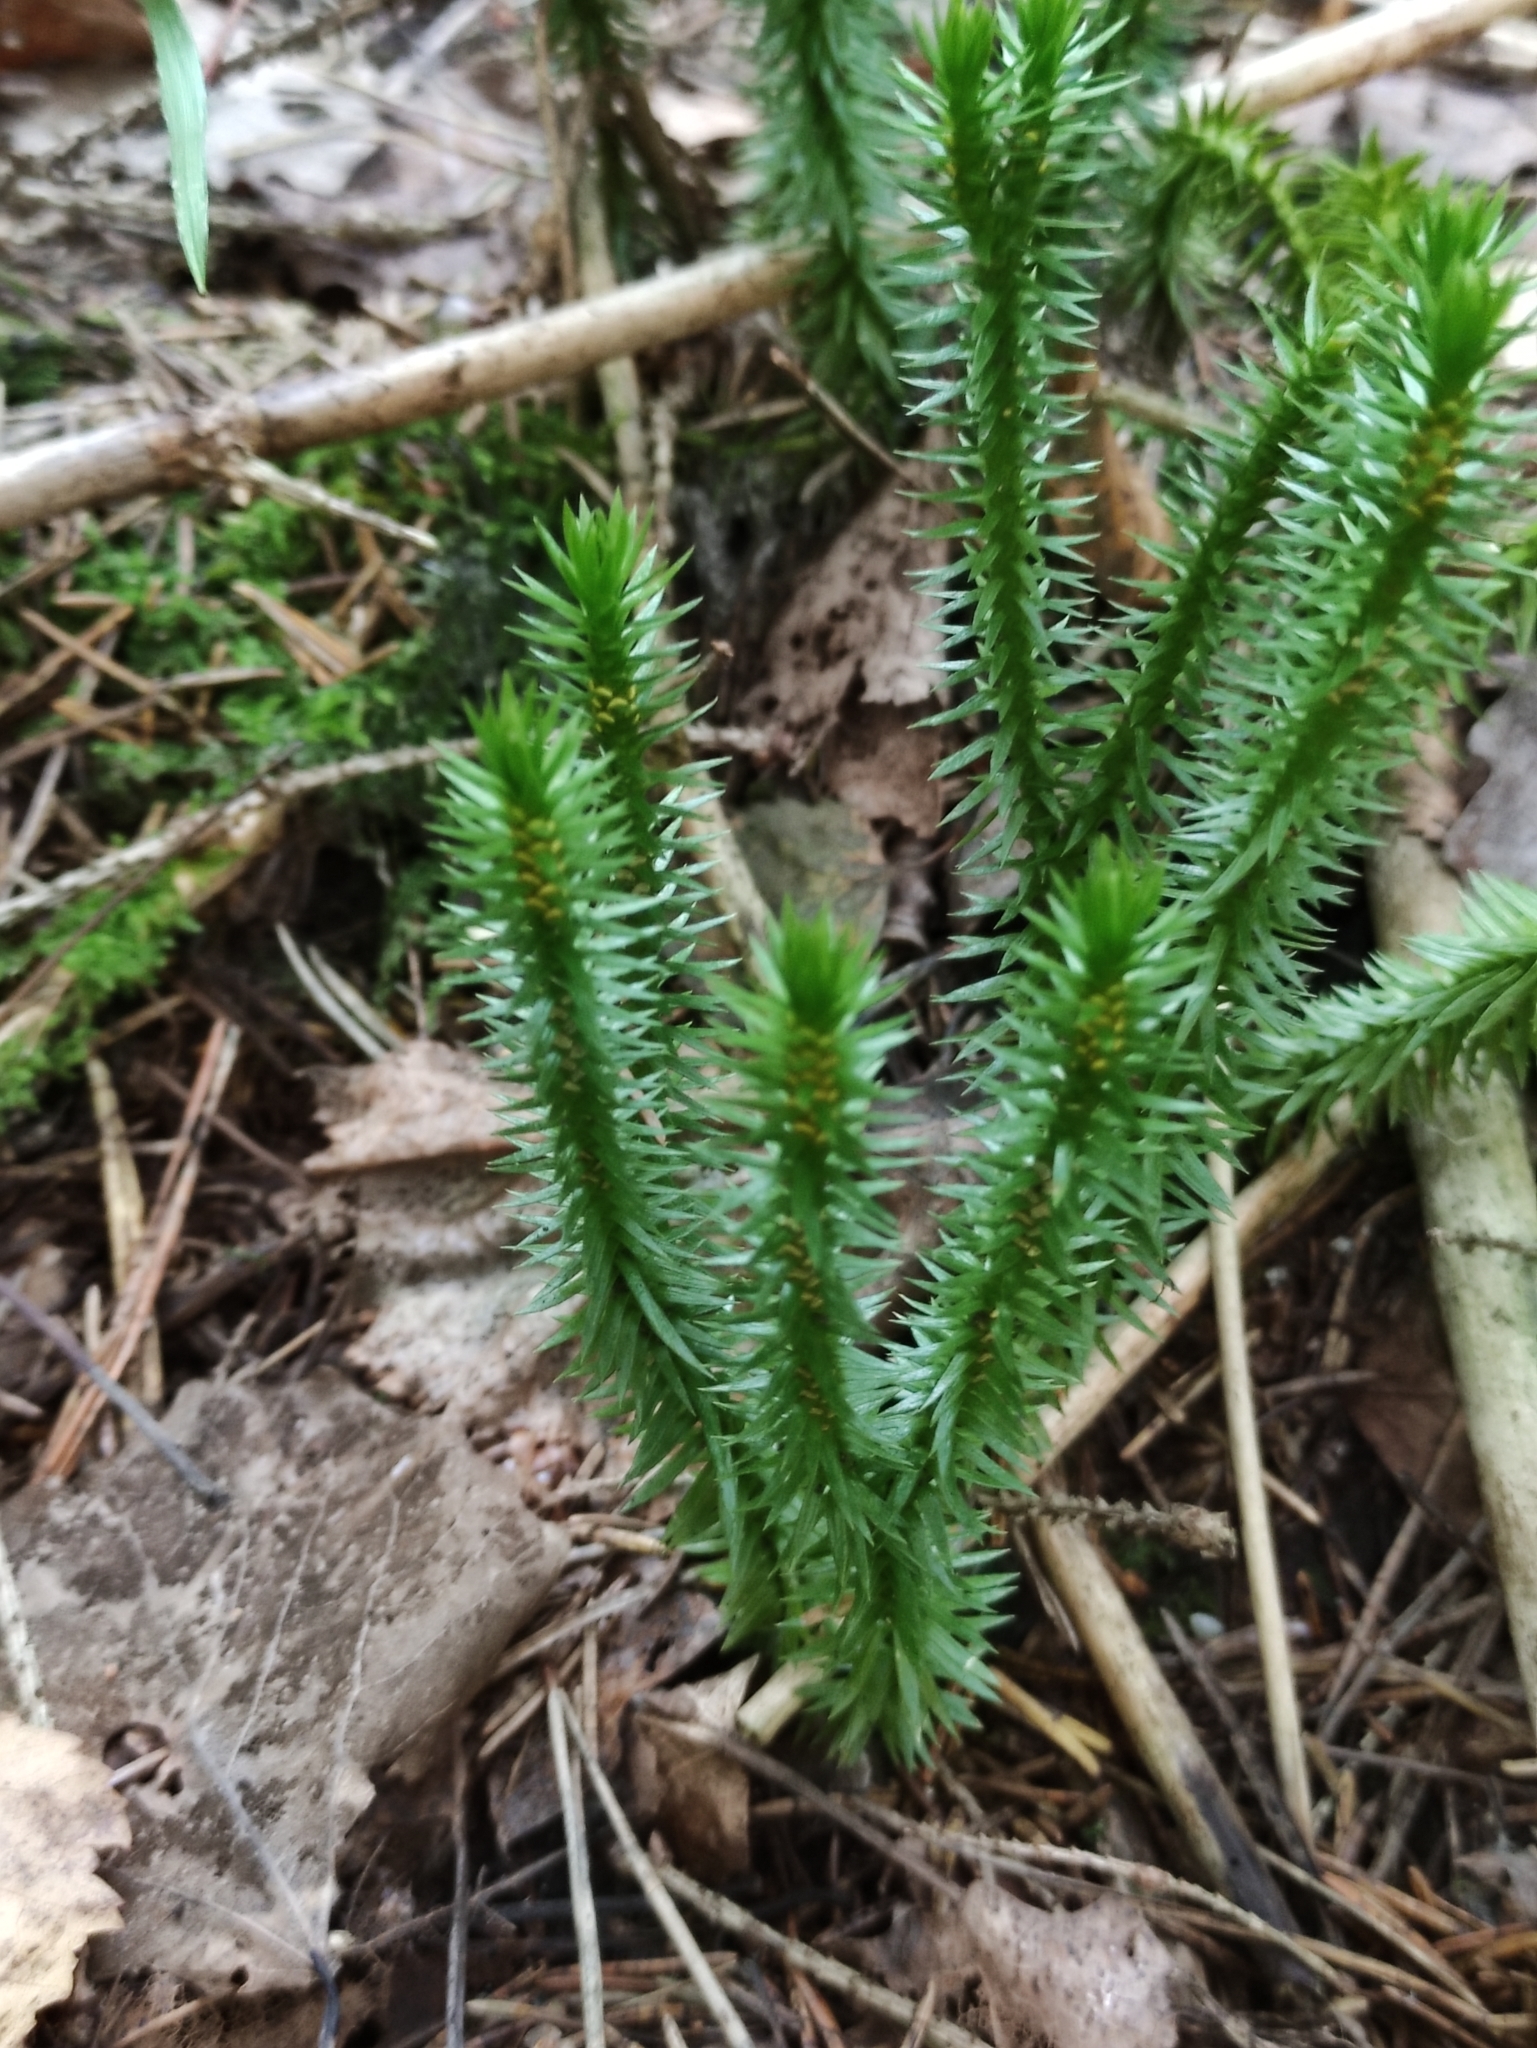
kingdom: Plantae
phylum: Tracheophyta
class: Lycopodiopsida
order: Lycopodiales
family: Lycopodiaceae
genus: Spinulum
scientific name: Spinulum annotinum
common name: Interrupted club-moss
